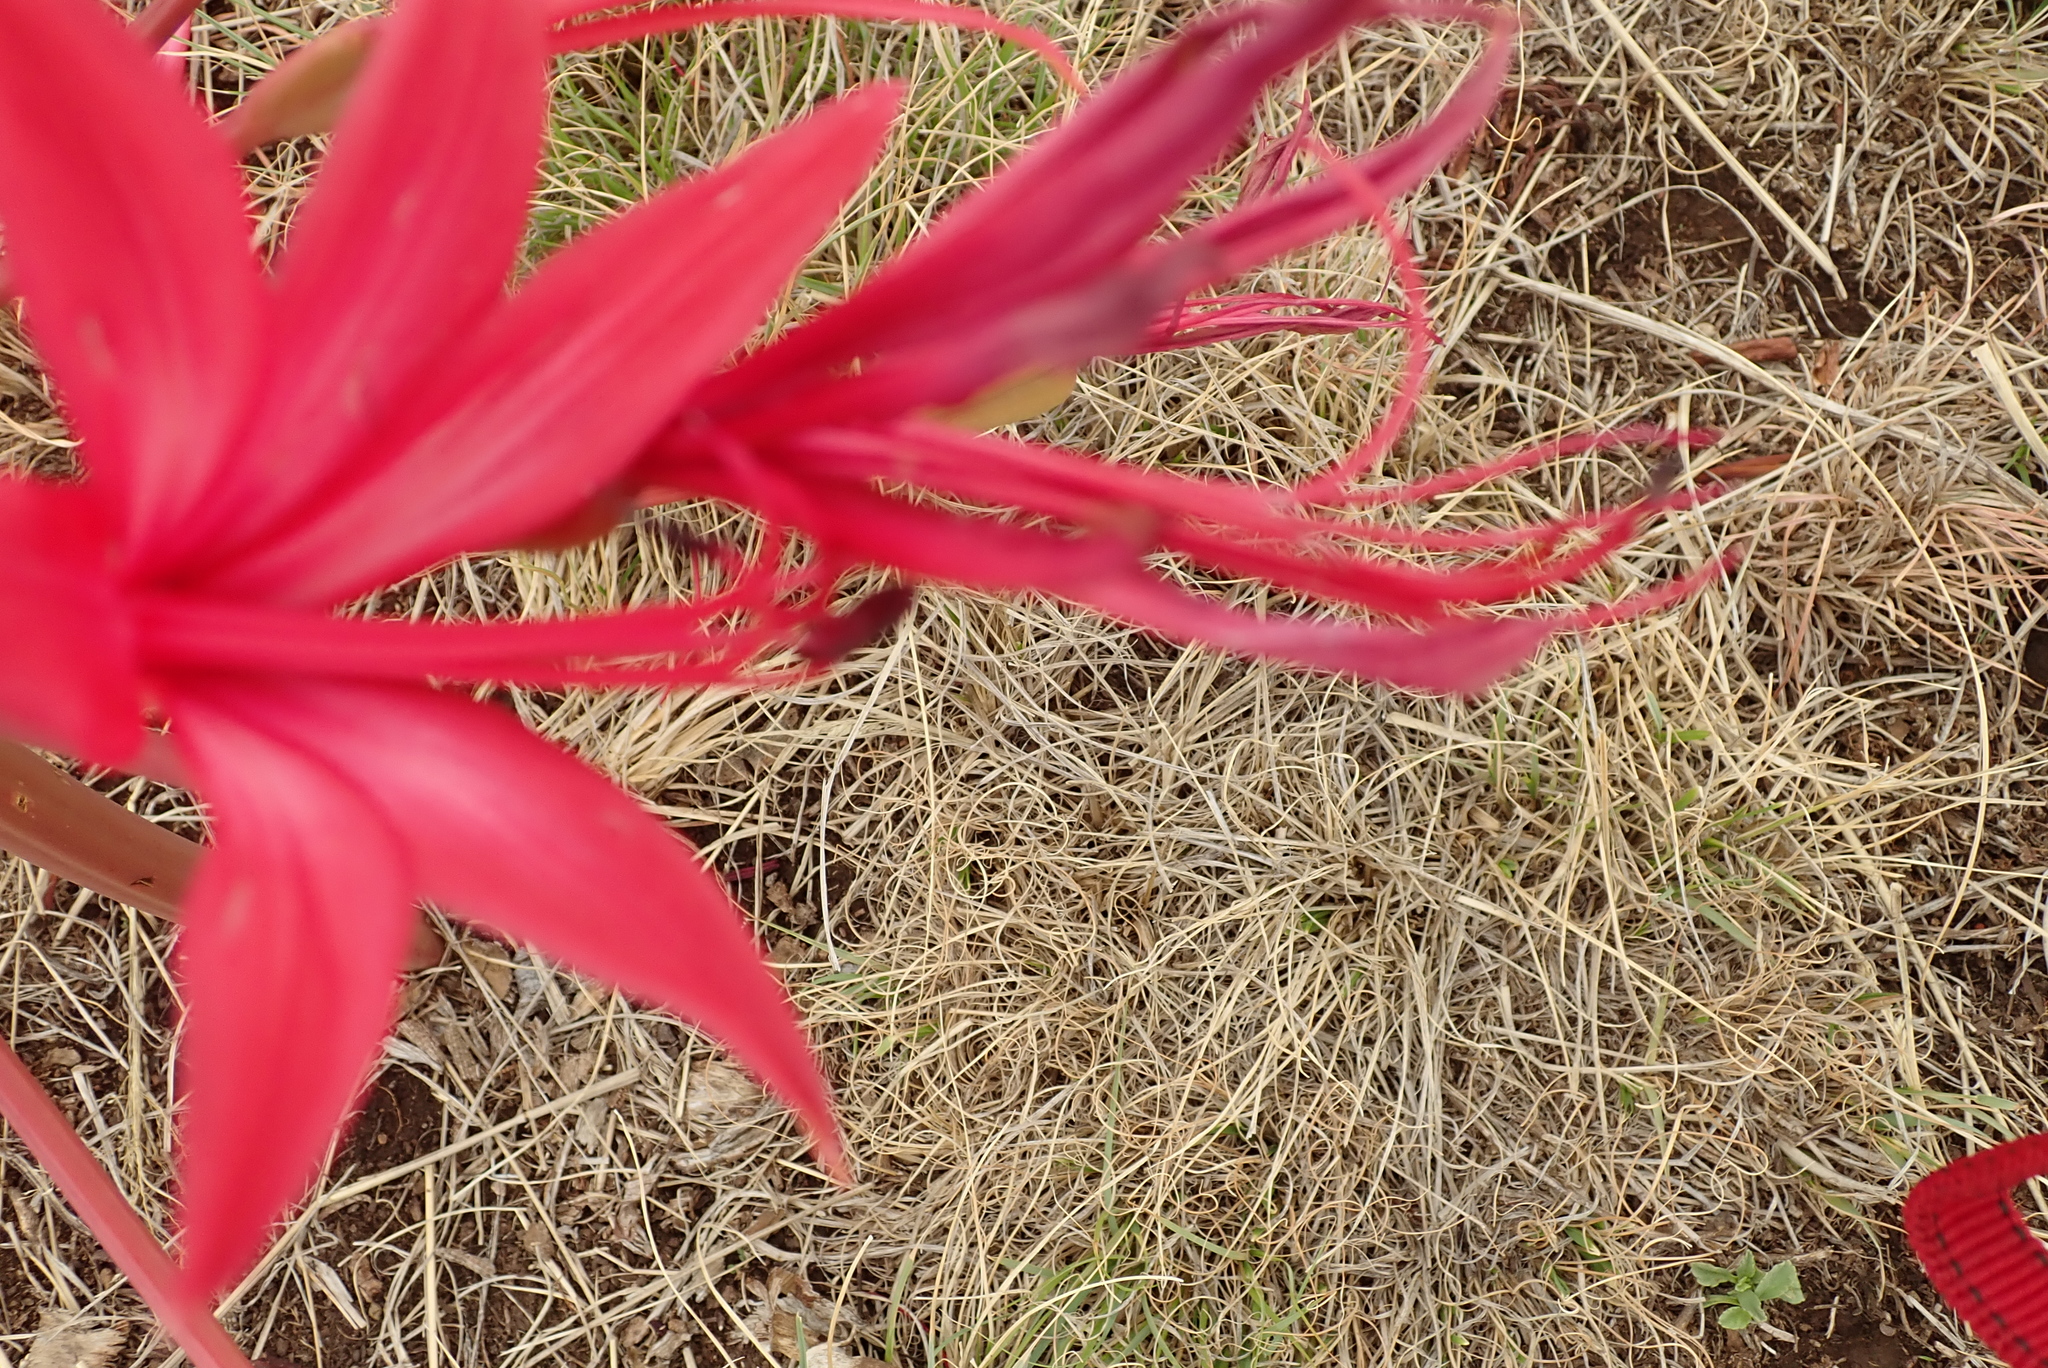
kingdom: Plantae
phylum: Tracheophyta
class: Liliopsida
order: Asparagales
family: Amaryllidaceae
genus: Brunsvigia
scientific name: Brunsvigia radulosa
